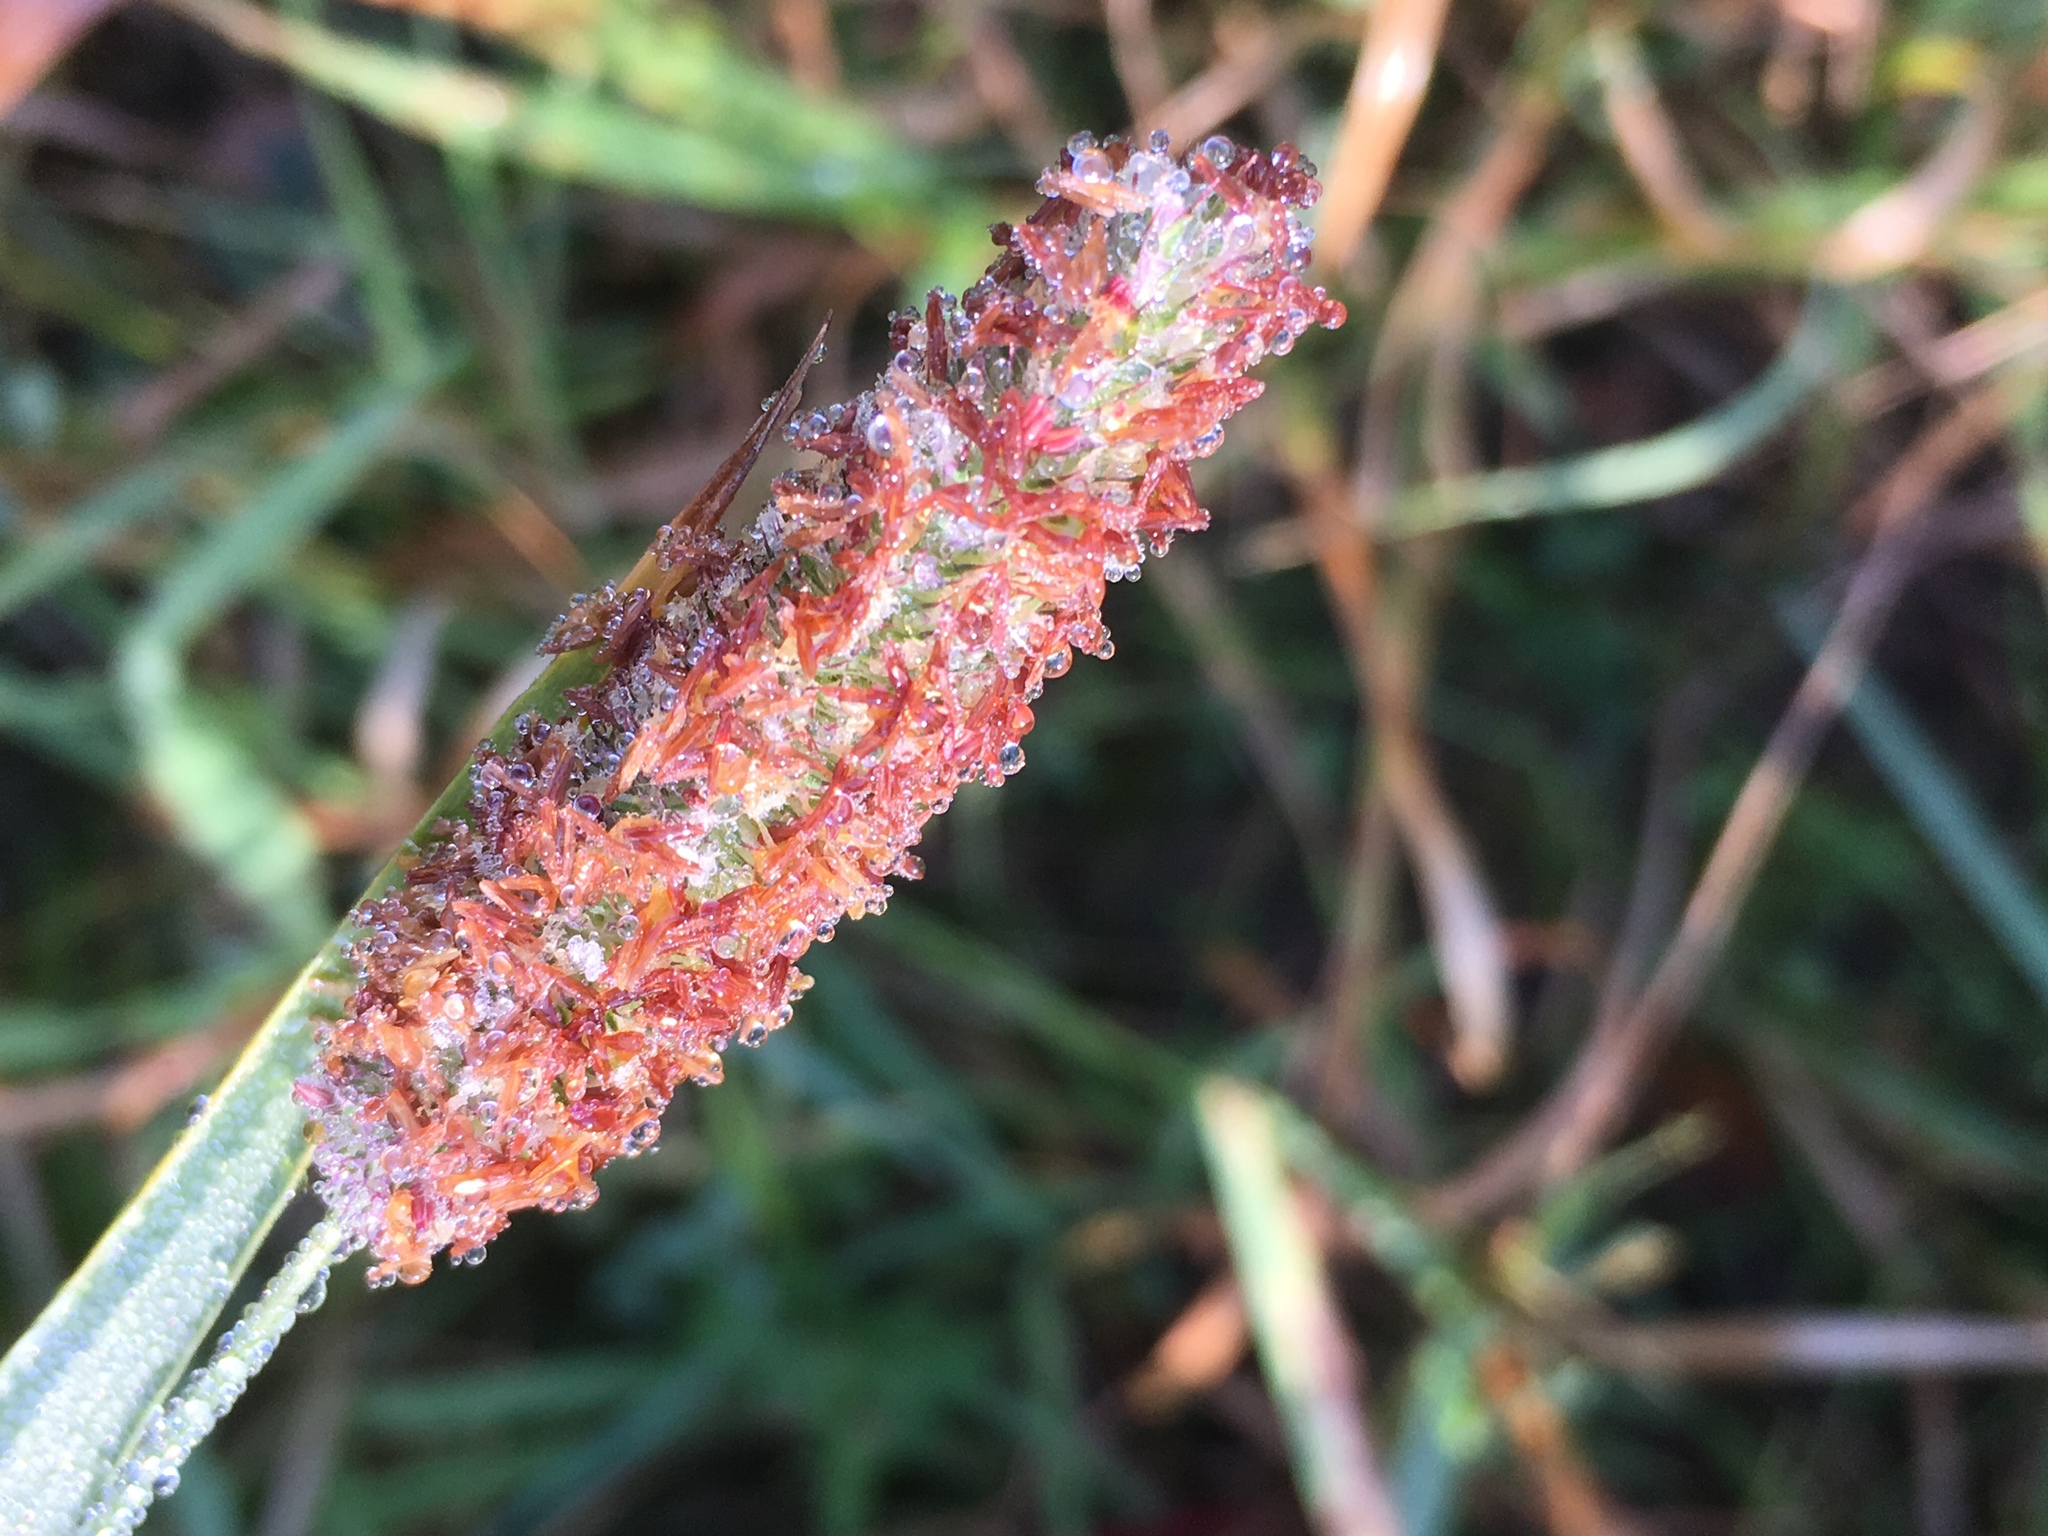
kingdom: Plantae
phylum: Tracheophyta
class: Liliopsida
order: Poales
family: Poaceae
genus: Phleum
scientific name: Phleum pratense
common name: Timothy grass
